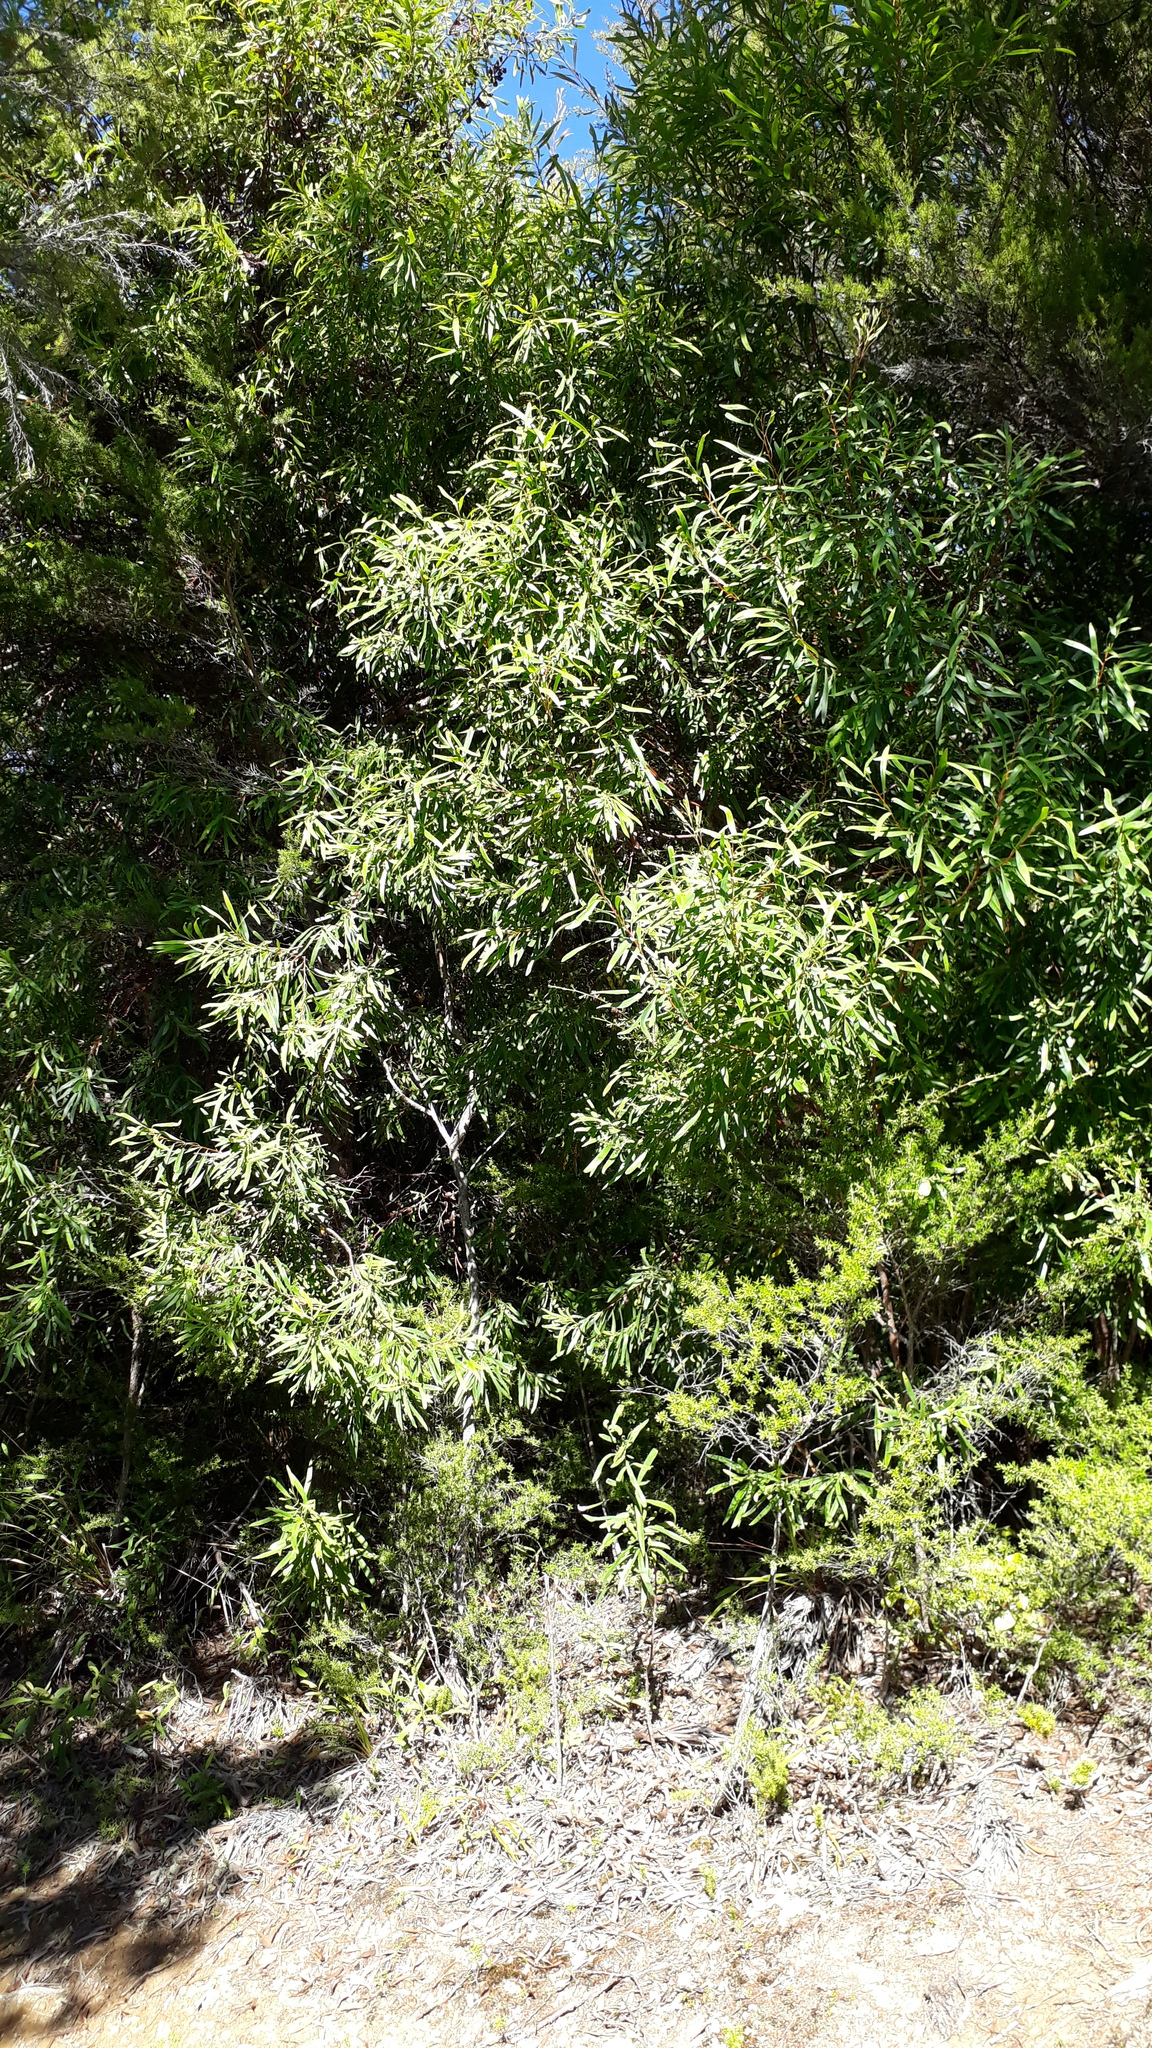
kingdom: Plantae
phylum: Tracheophyta
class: Magnoliopsida
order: Proteales
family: Proteaceae
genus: Hakea
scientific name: Hakea salicifolia
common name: Willow hakea
